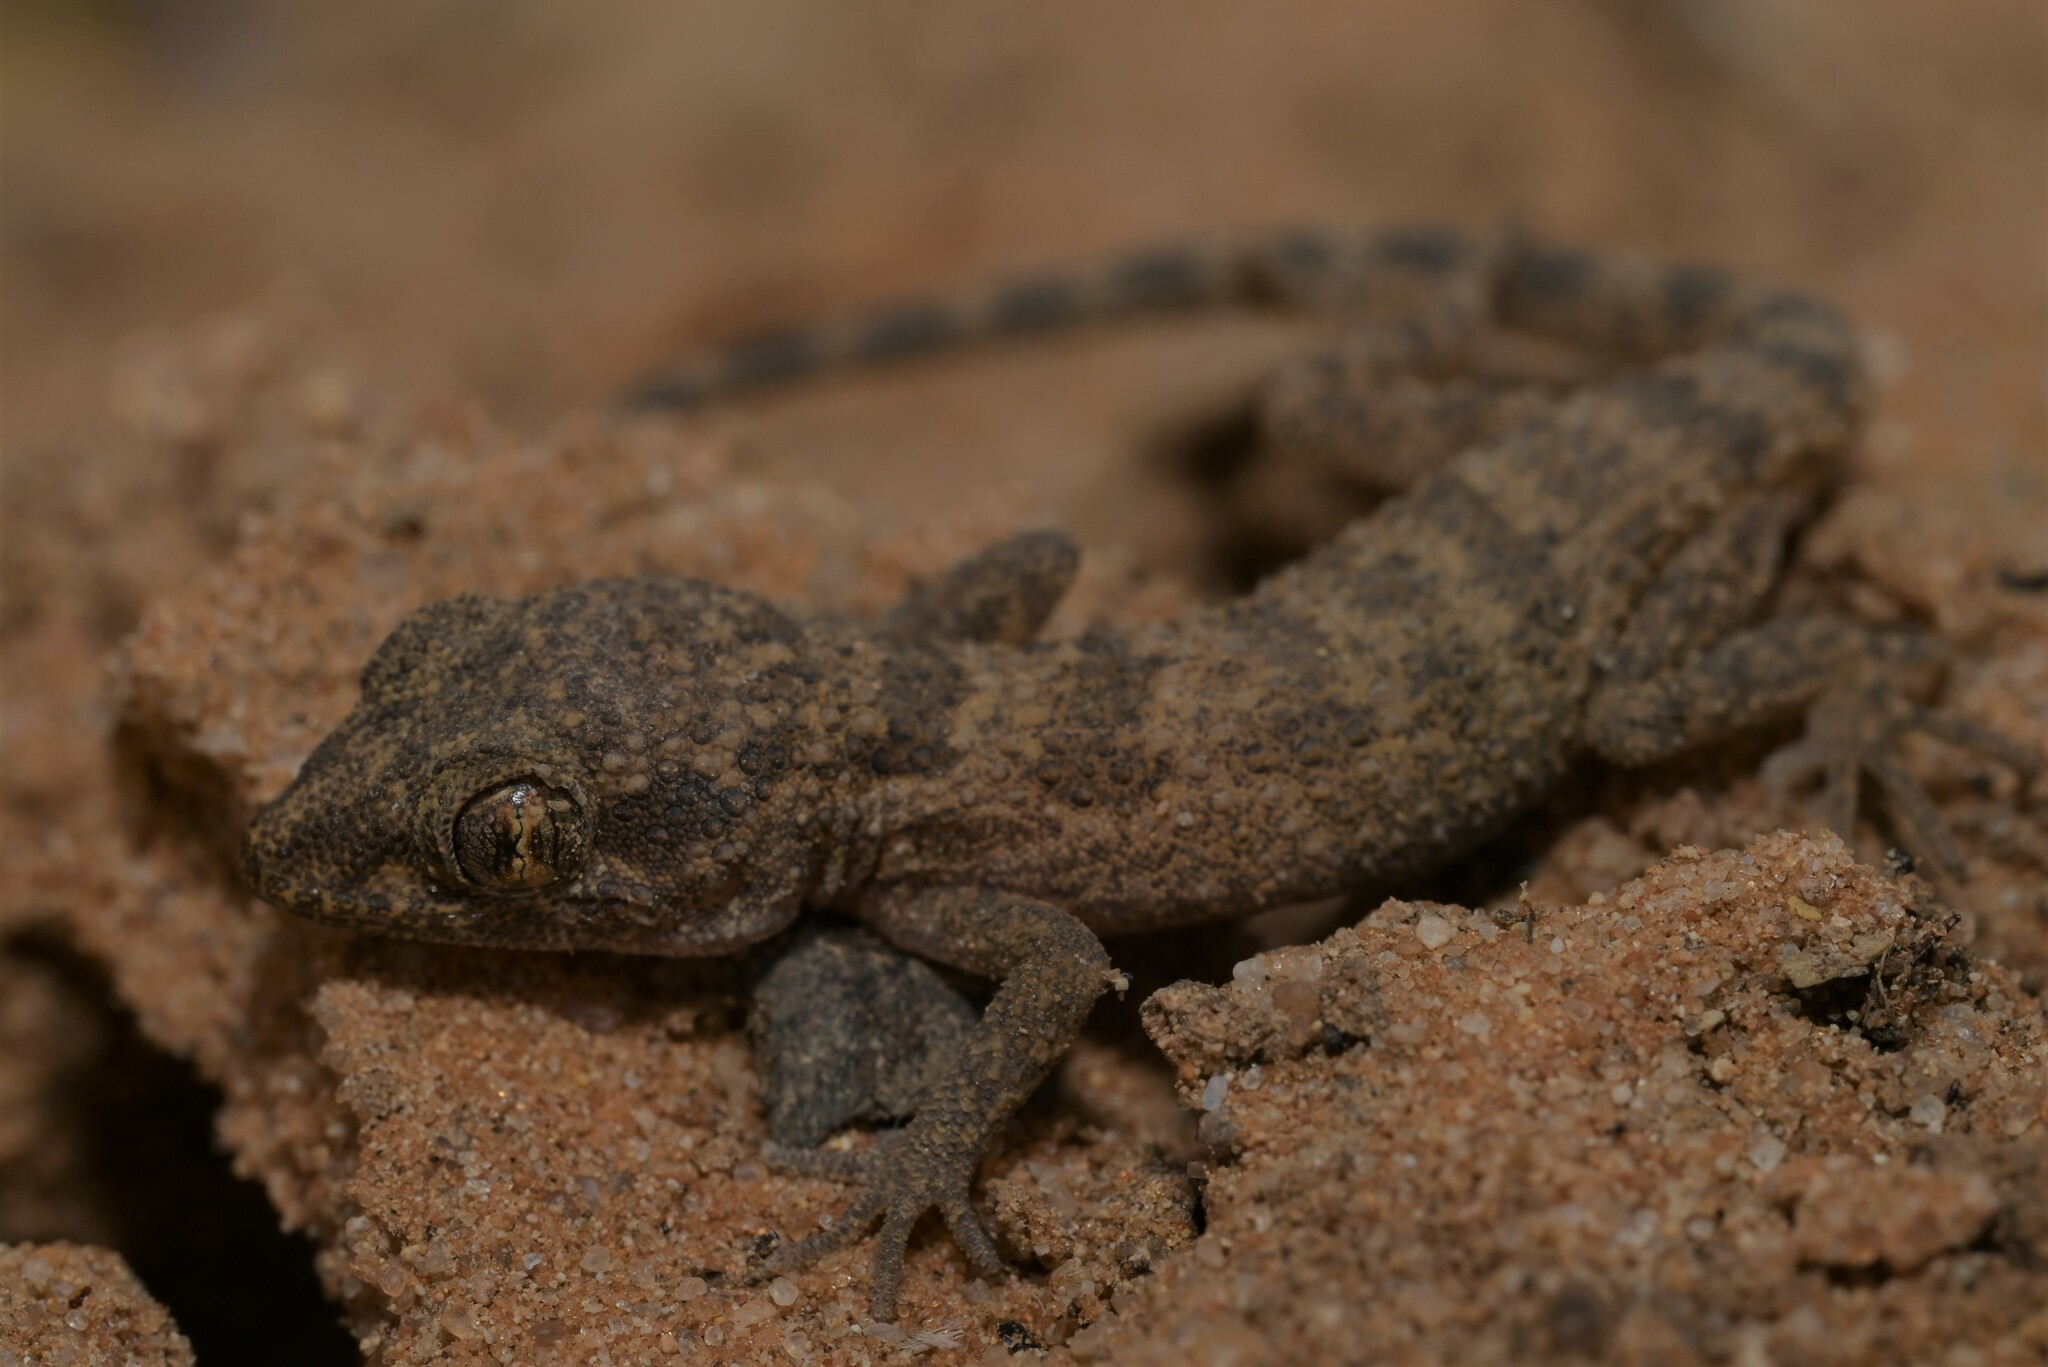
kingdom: Animalia
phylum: Chordata
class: Squamata
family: Gekkonidae
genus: Bunopus
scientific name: Bunopus tuberculatus
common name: Southern tuberculated gecko
